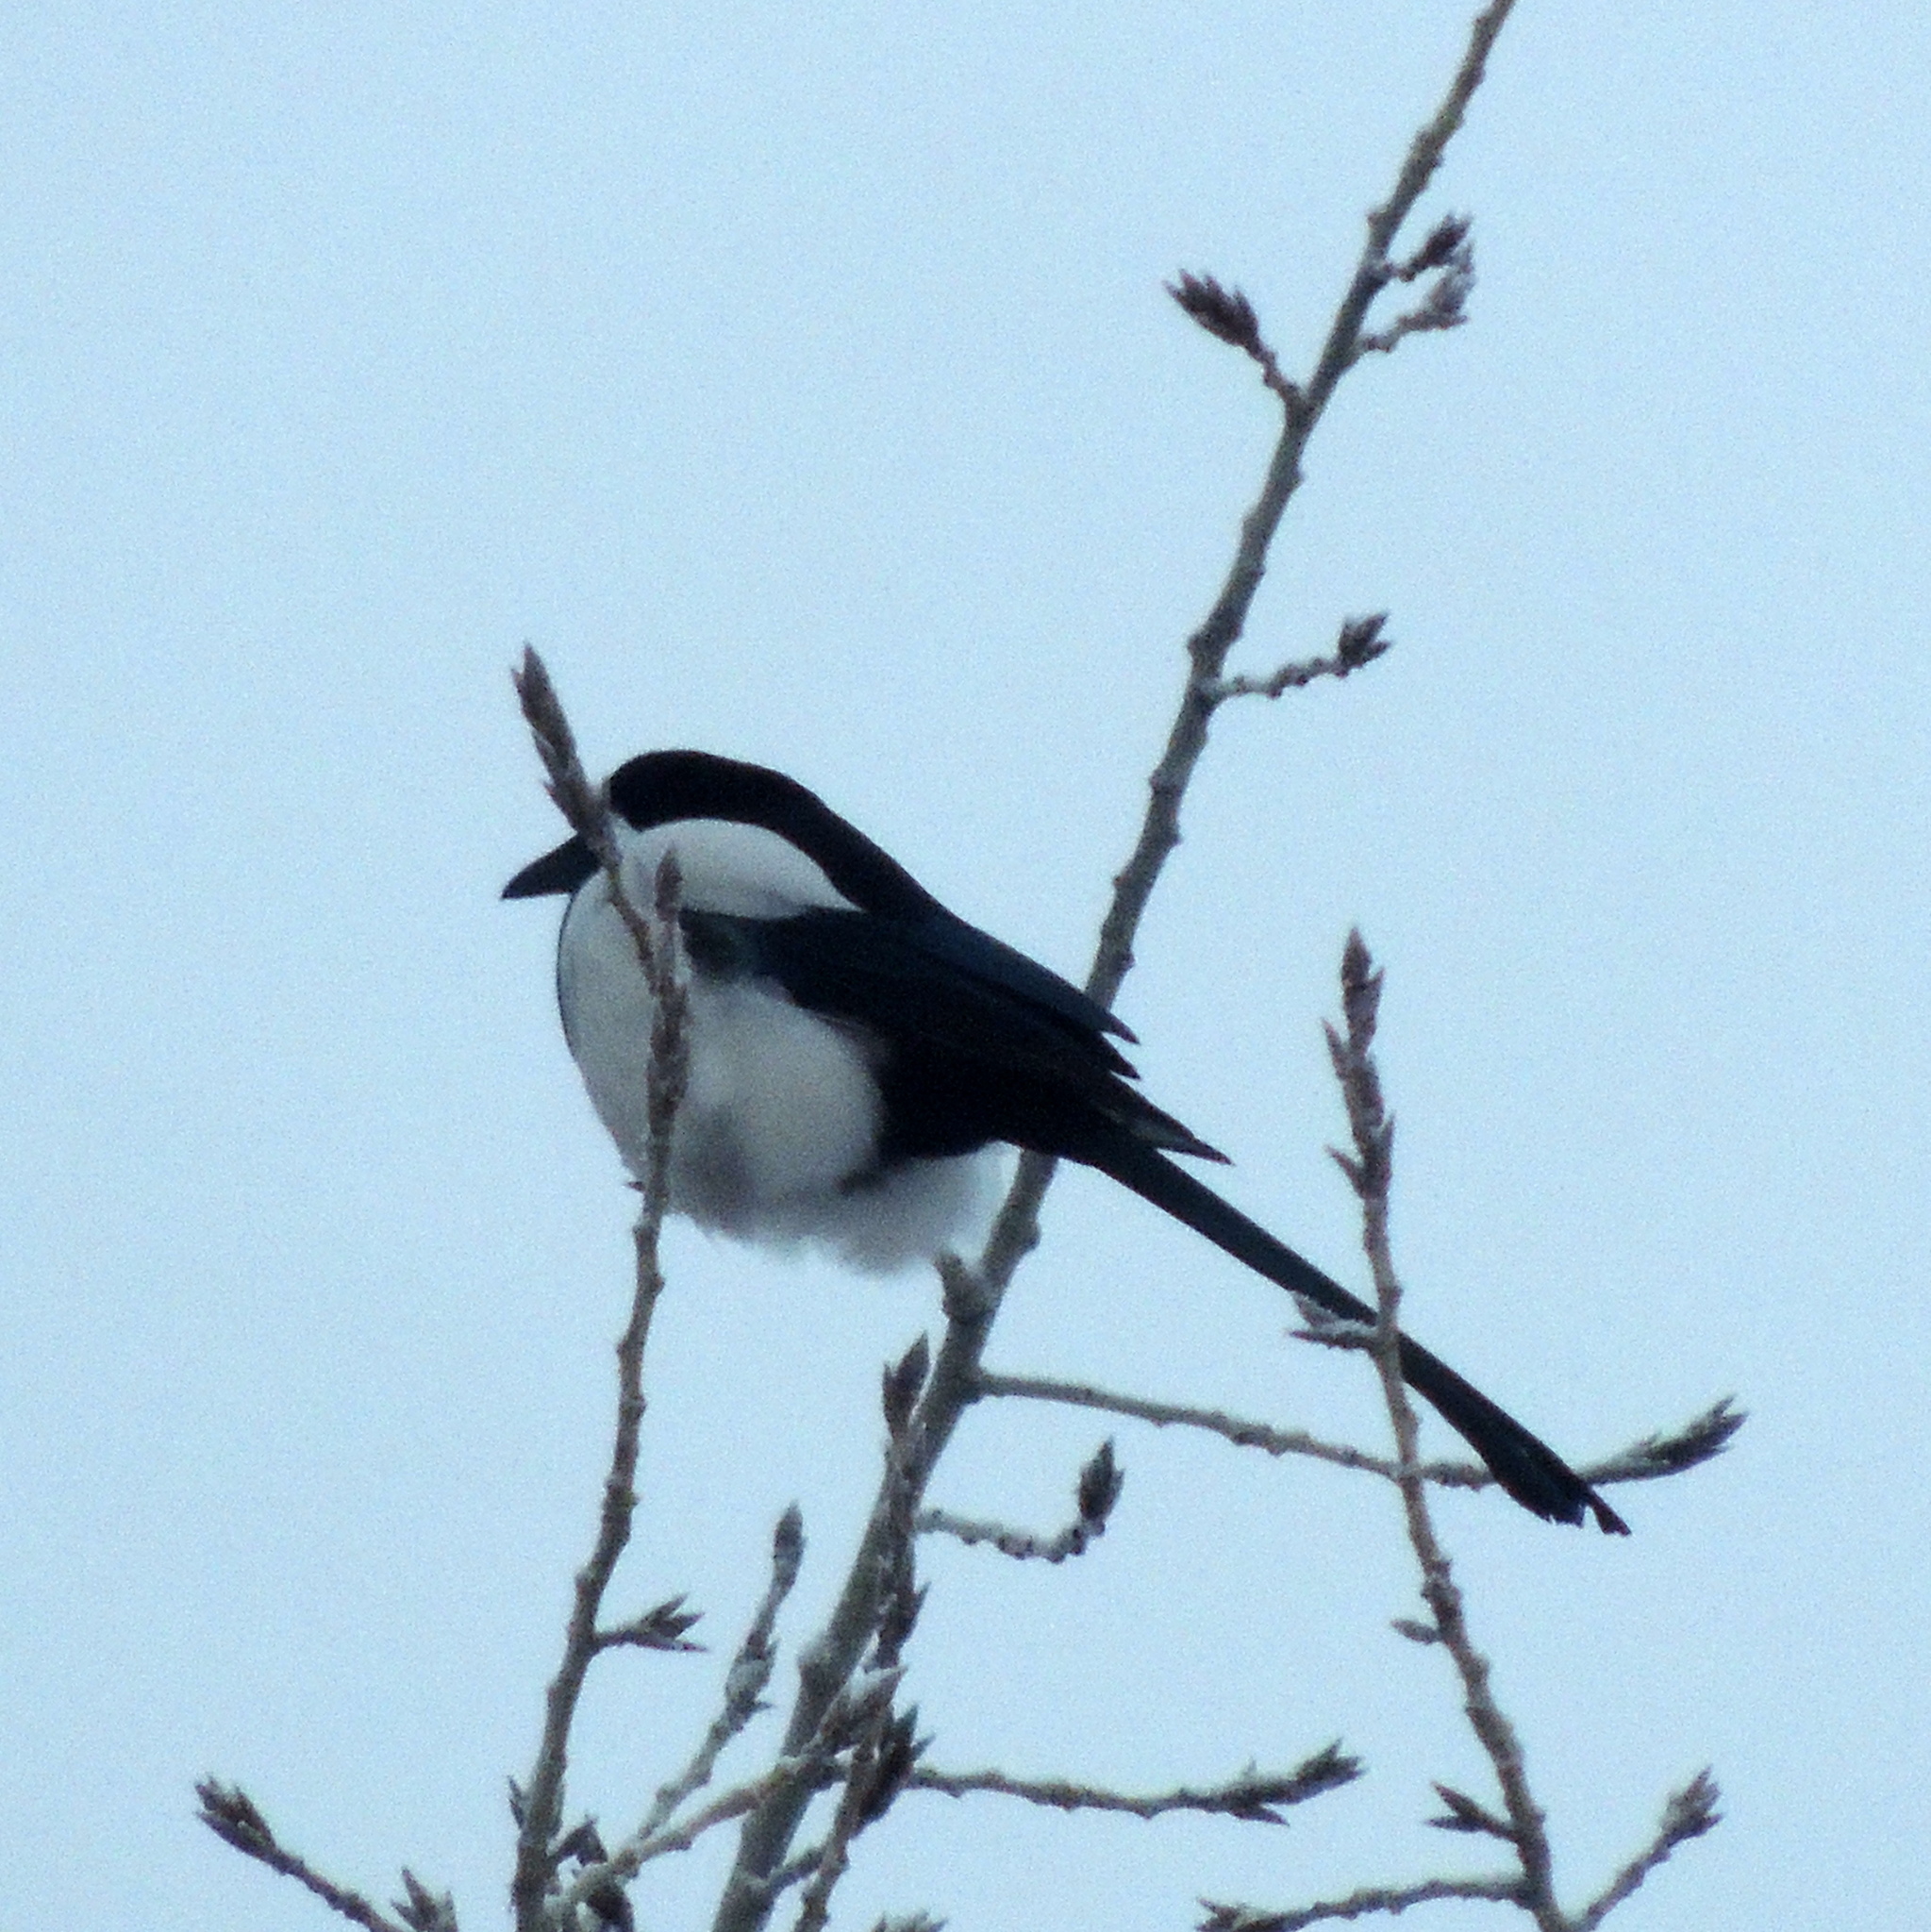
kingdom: Animalia
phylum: Chordata
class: Aves
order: Passeriformes
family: Corvidae
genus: Pica
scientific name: Pica pica
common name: Eurasian magpie
